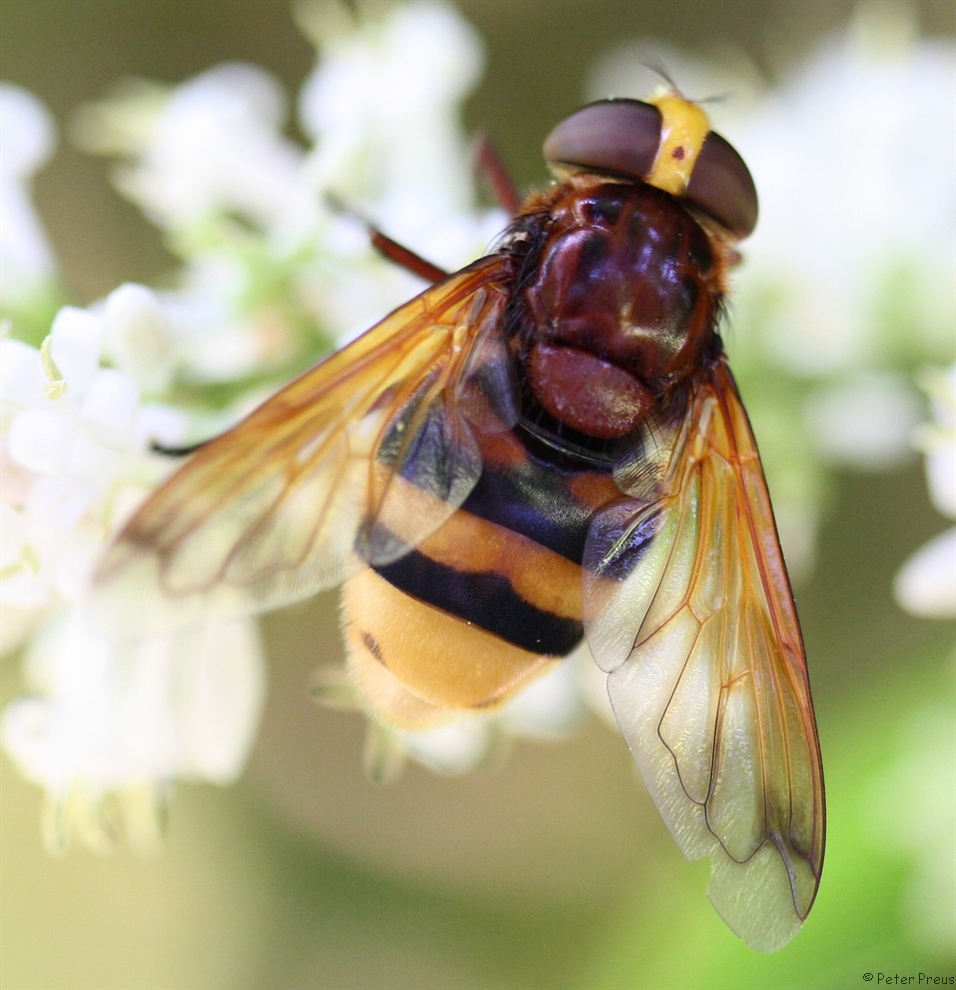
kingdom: Animalia
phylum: Arthropoda
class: Insecta
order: Diptera
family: Syrphidae
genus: Volucella
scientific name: Volucella zonaria
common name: Hornet hoverfly
